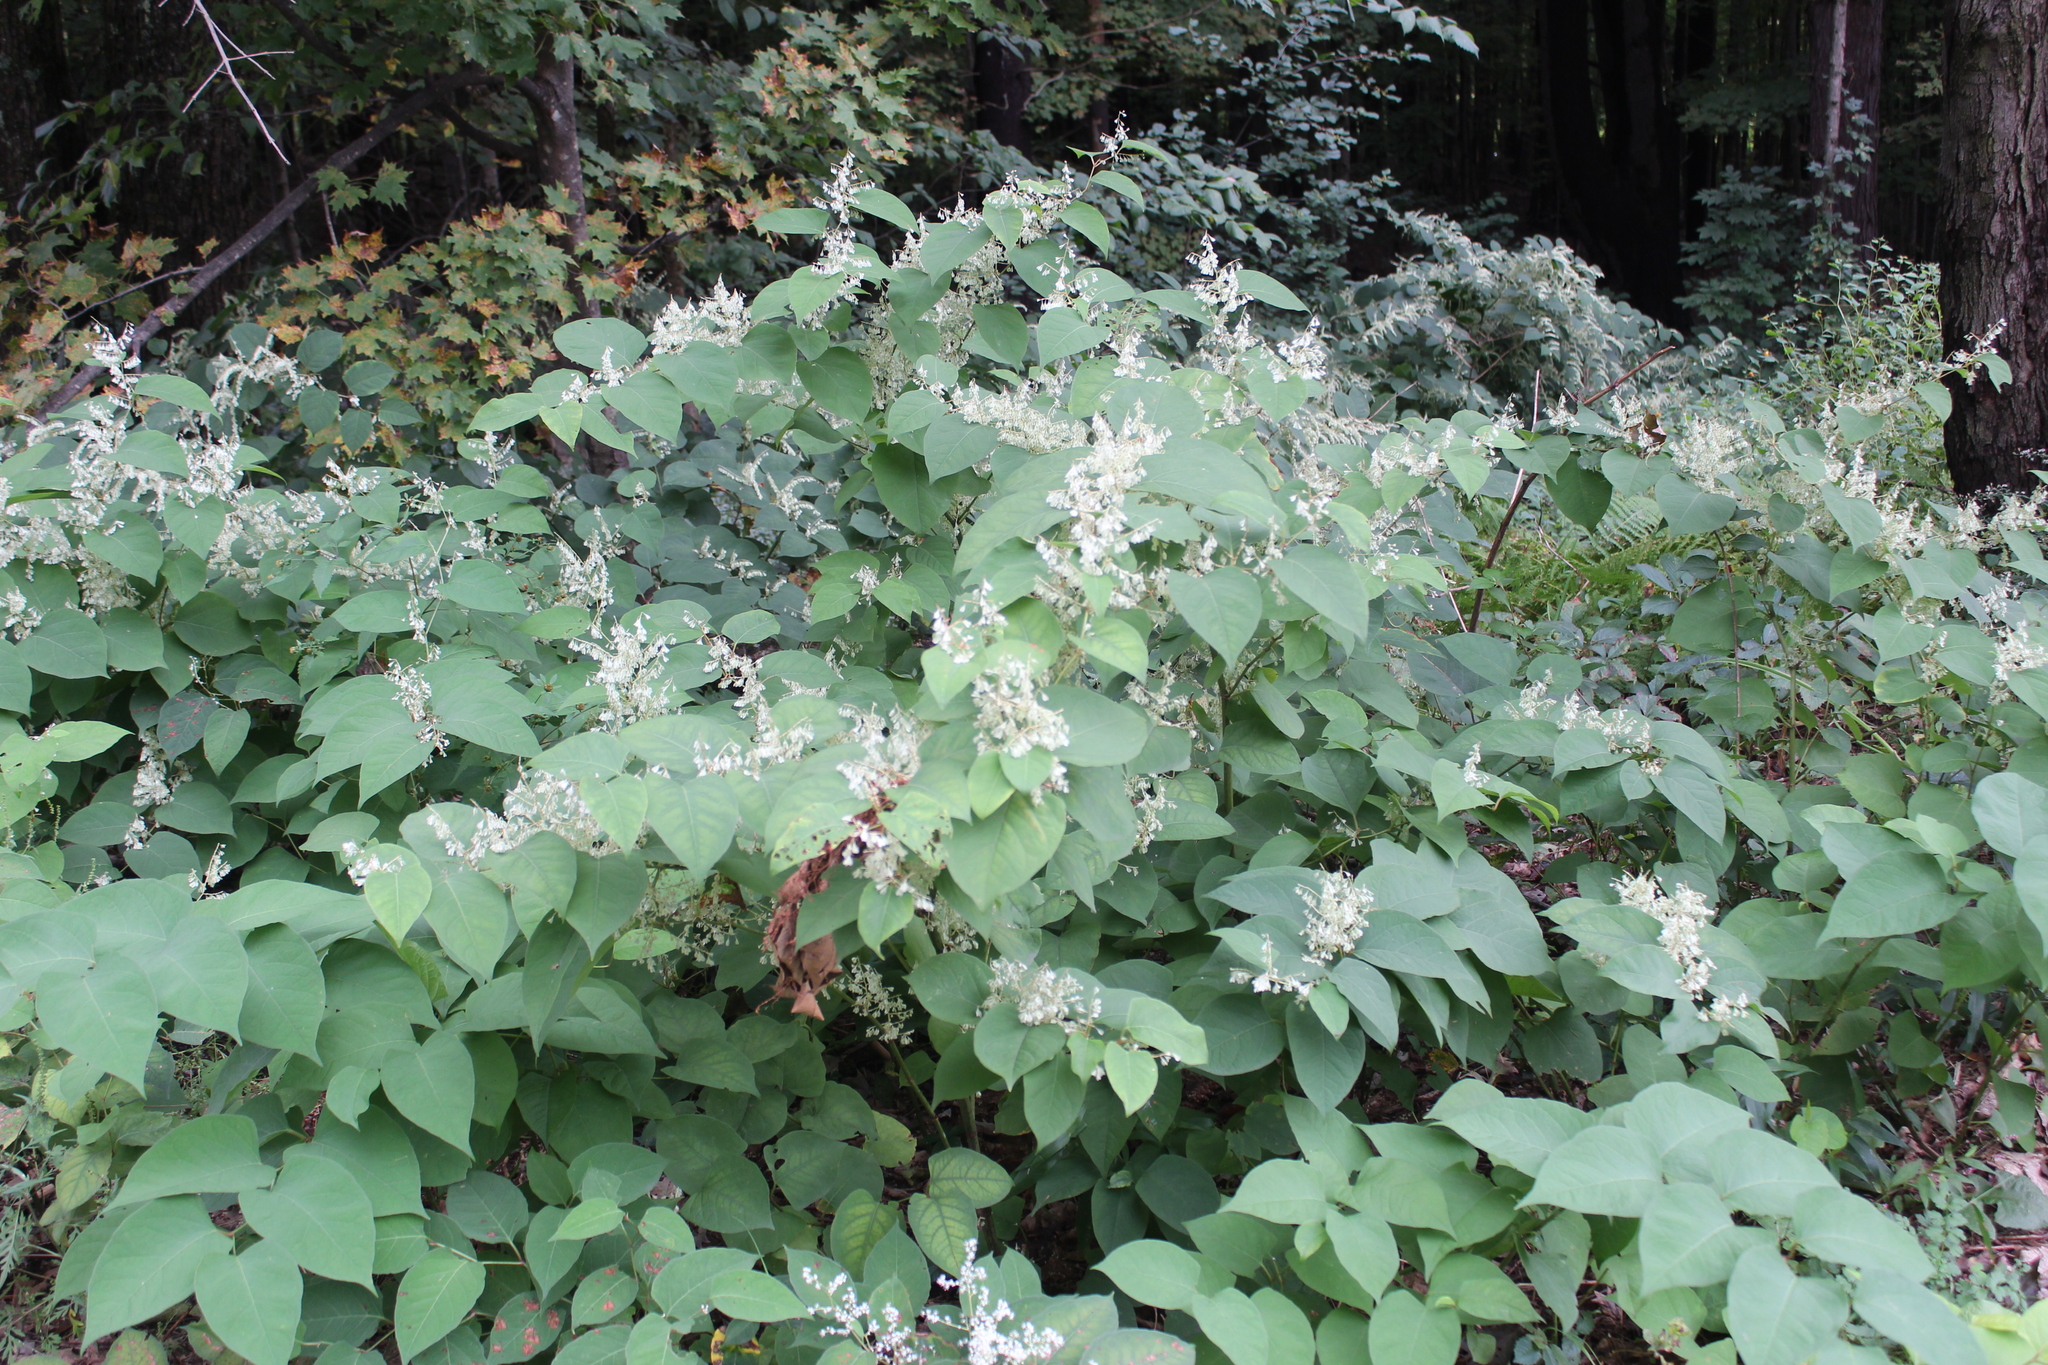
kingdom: Plantae
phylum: Tracheophyta
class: Magnoliopsida
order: Caryophyllales
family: Polygonaceae
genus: Reynoutria
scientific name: Reynoutria japonica
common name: Japanese knotweed
